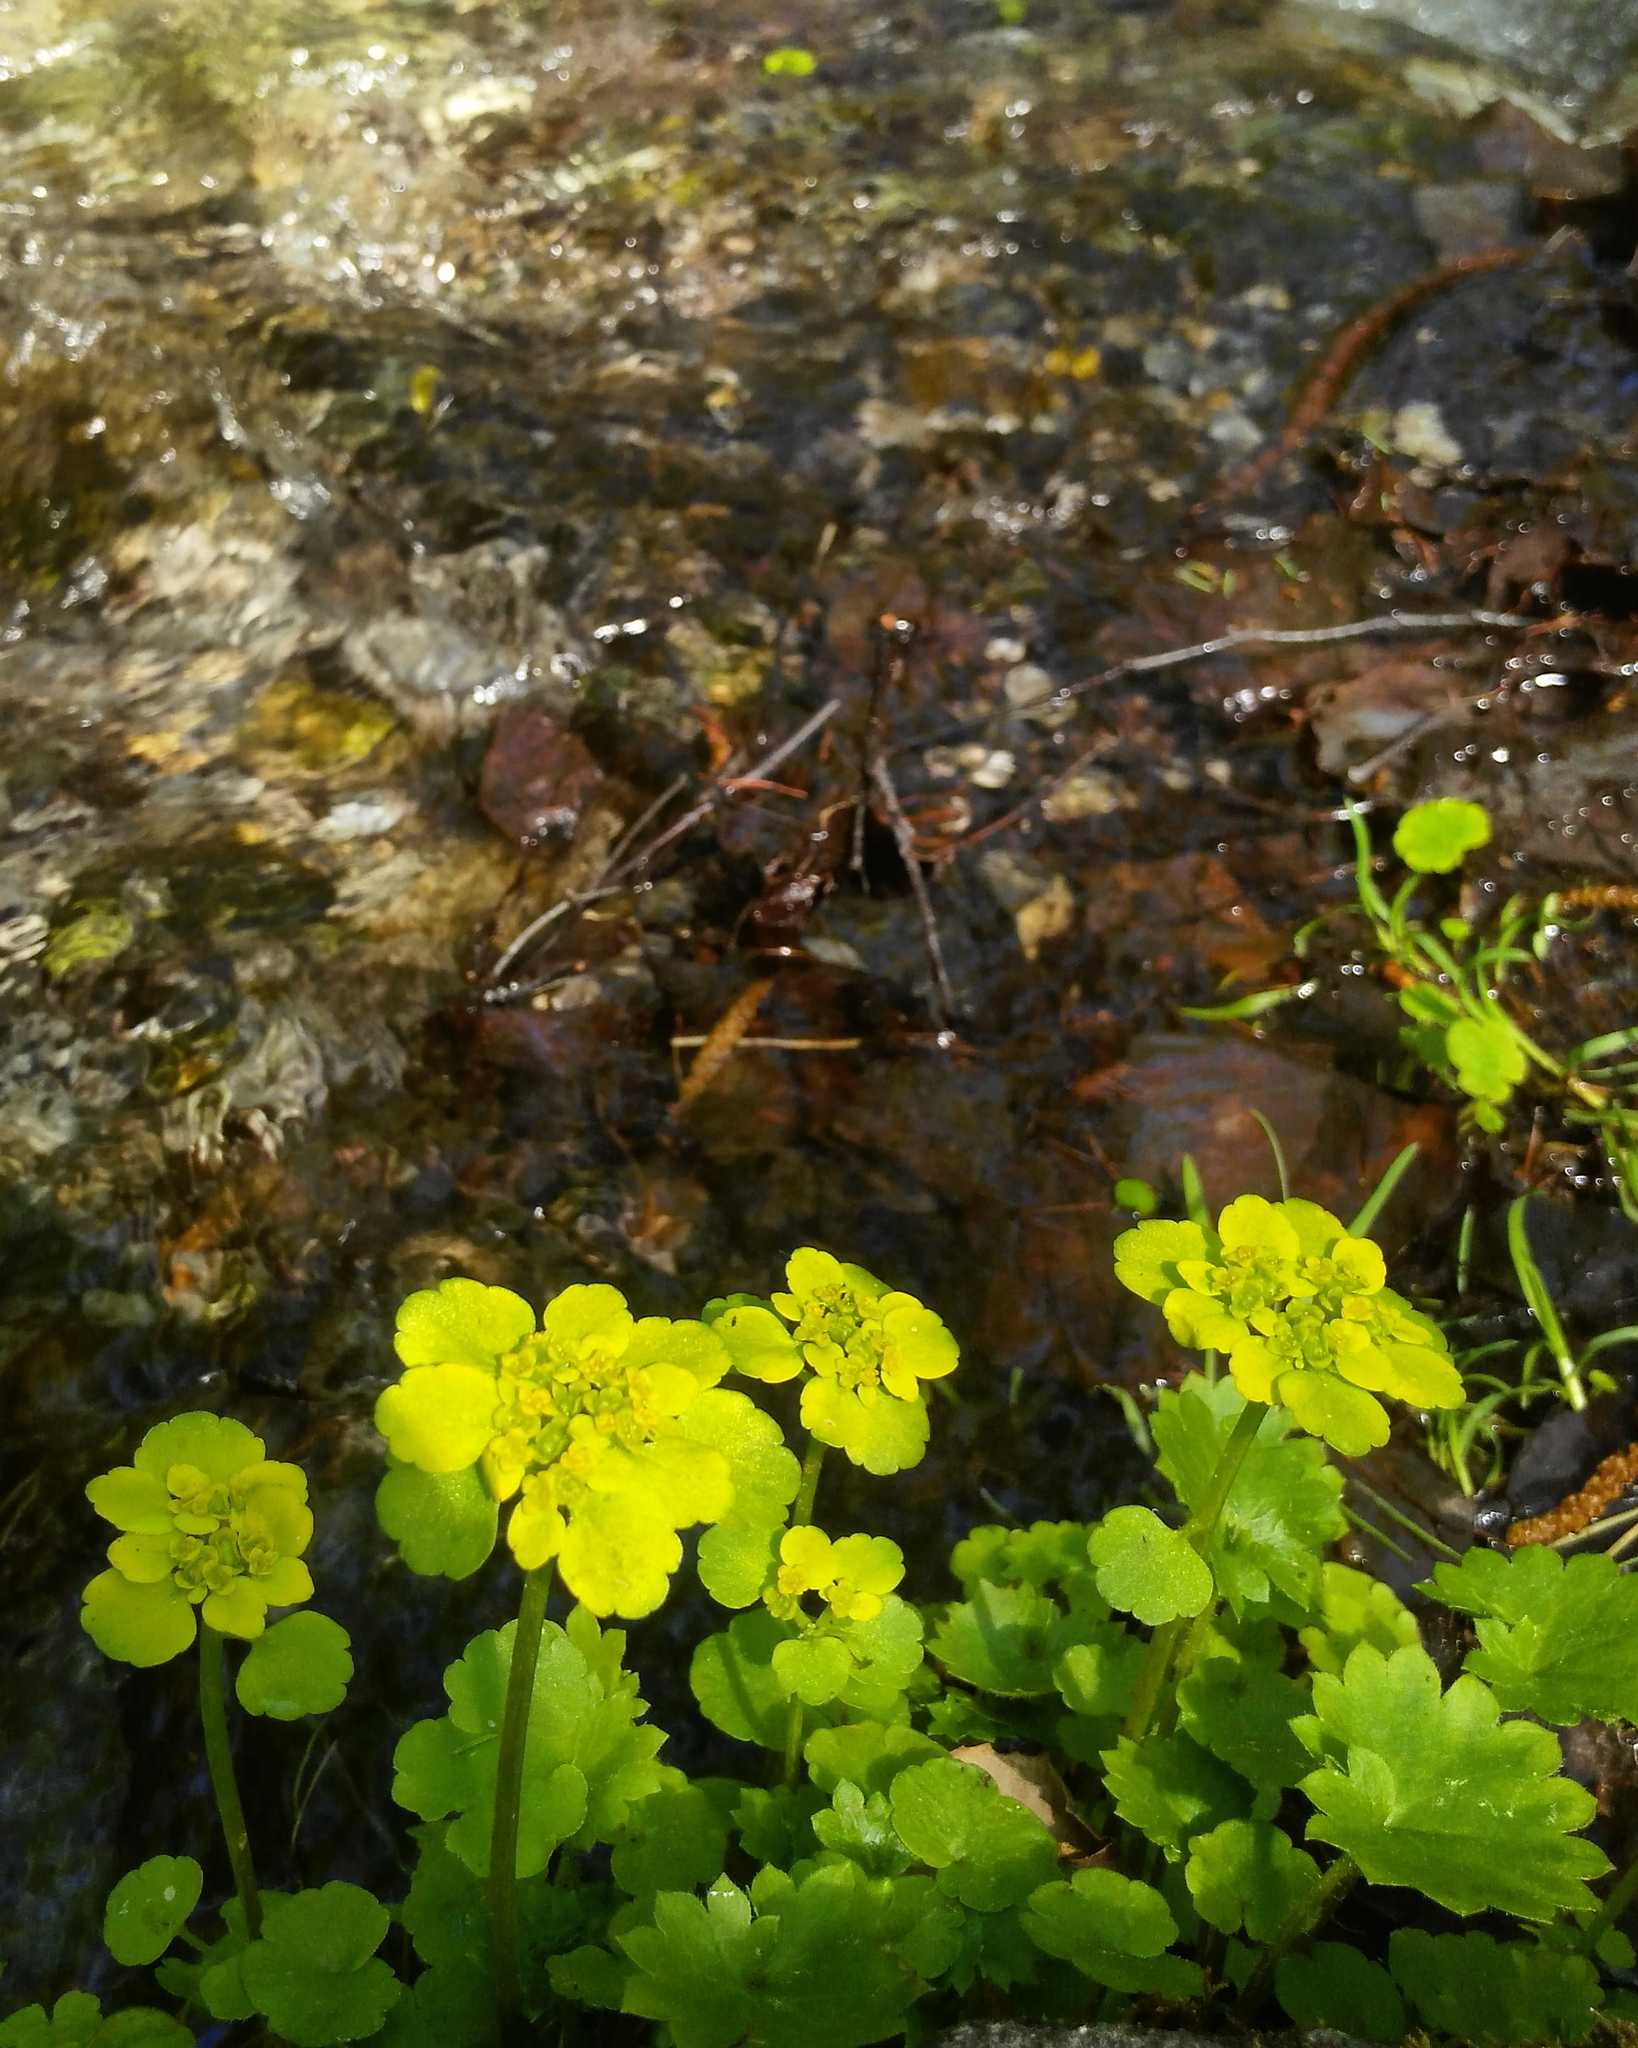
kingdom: Plantae
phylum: Tracheophyta
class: Magnoliopsida
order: Saxifragales
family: Saxifragaceae
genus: Chrysosplenium
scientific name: Chrysosplenium sibiricum
